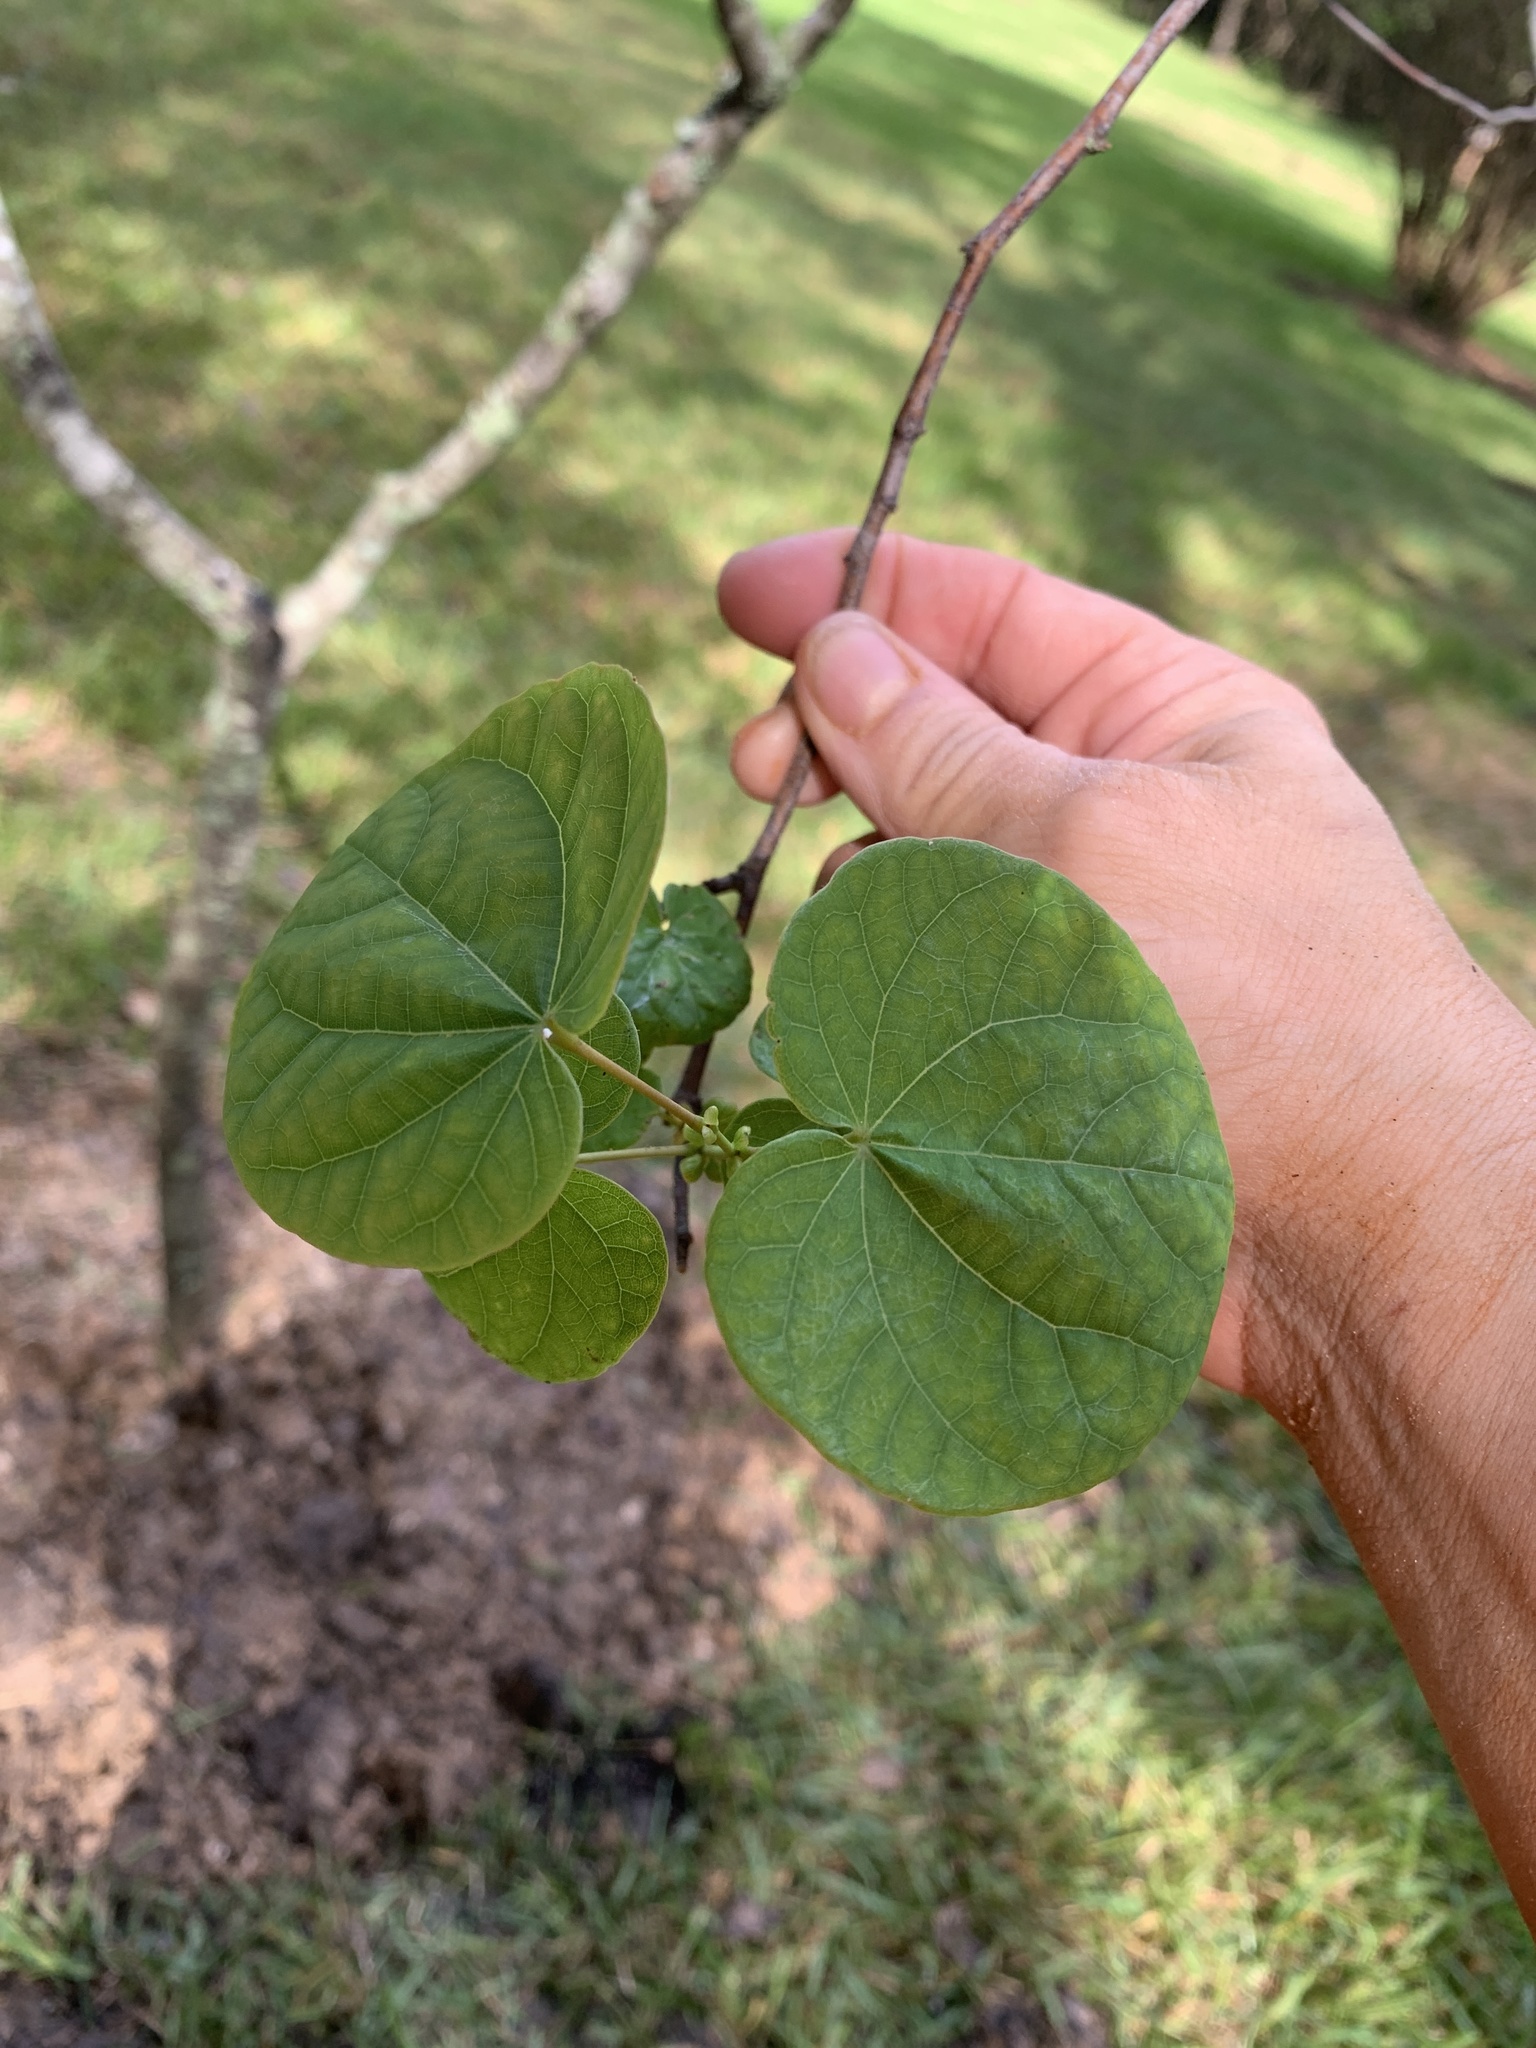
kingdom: Plantae
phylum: Tracheophyta
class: Magnoliopsida
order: Fabales
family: Fabaceae
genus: Cercis
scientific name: Cercis canadensis
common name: Eastern redbud
